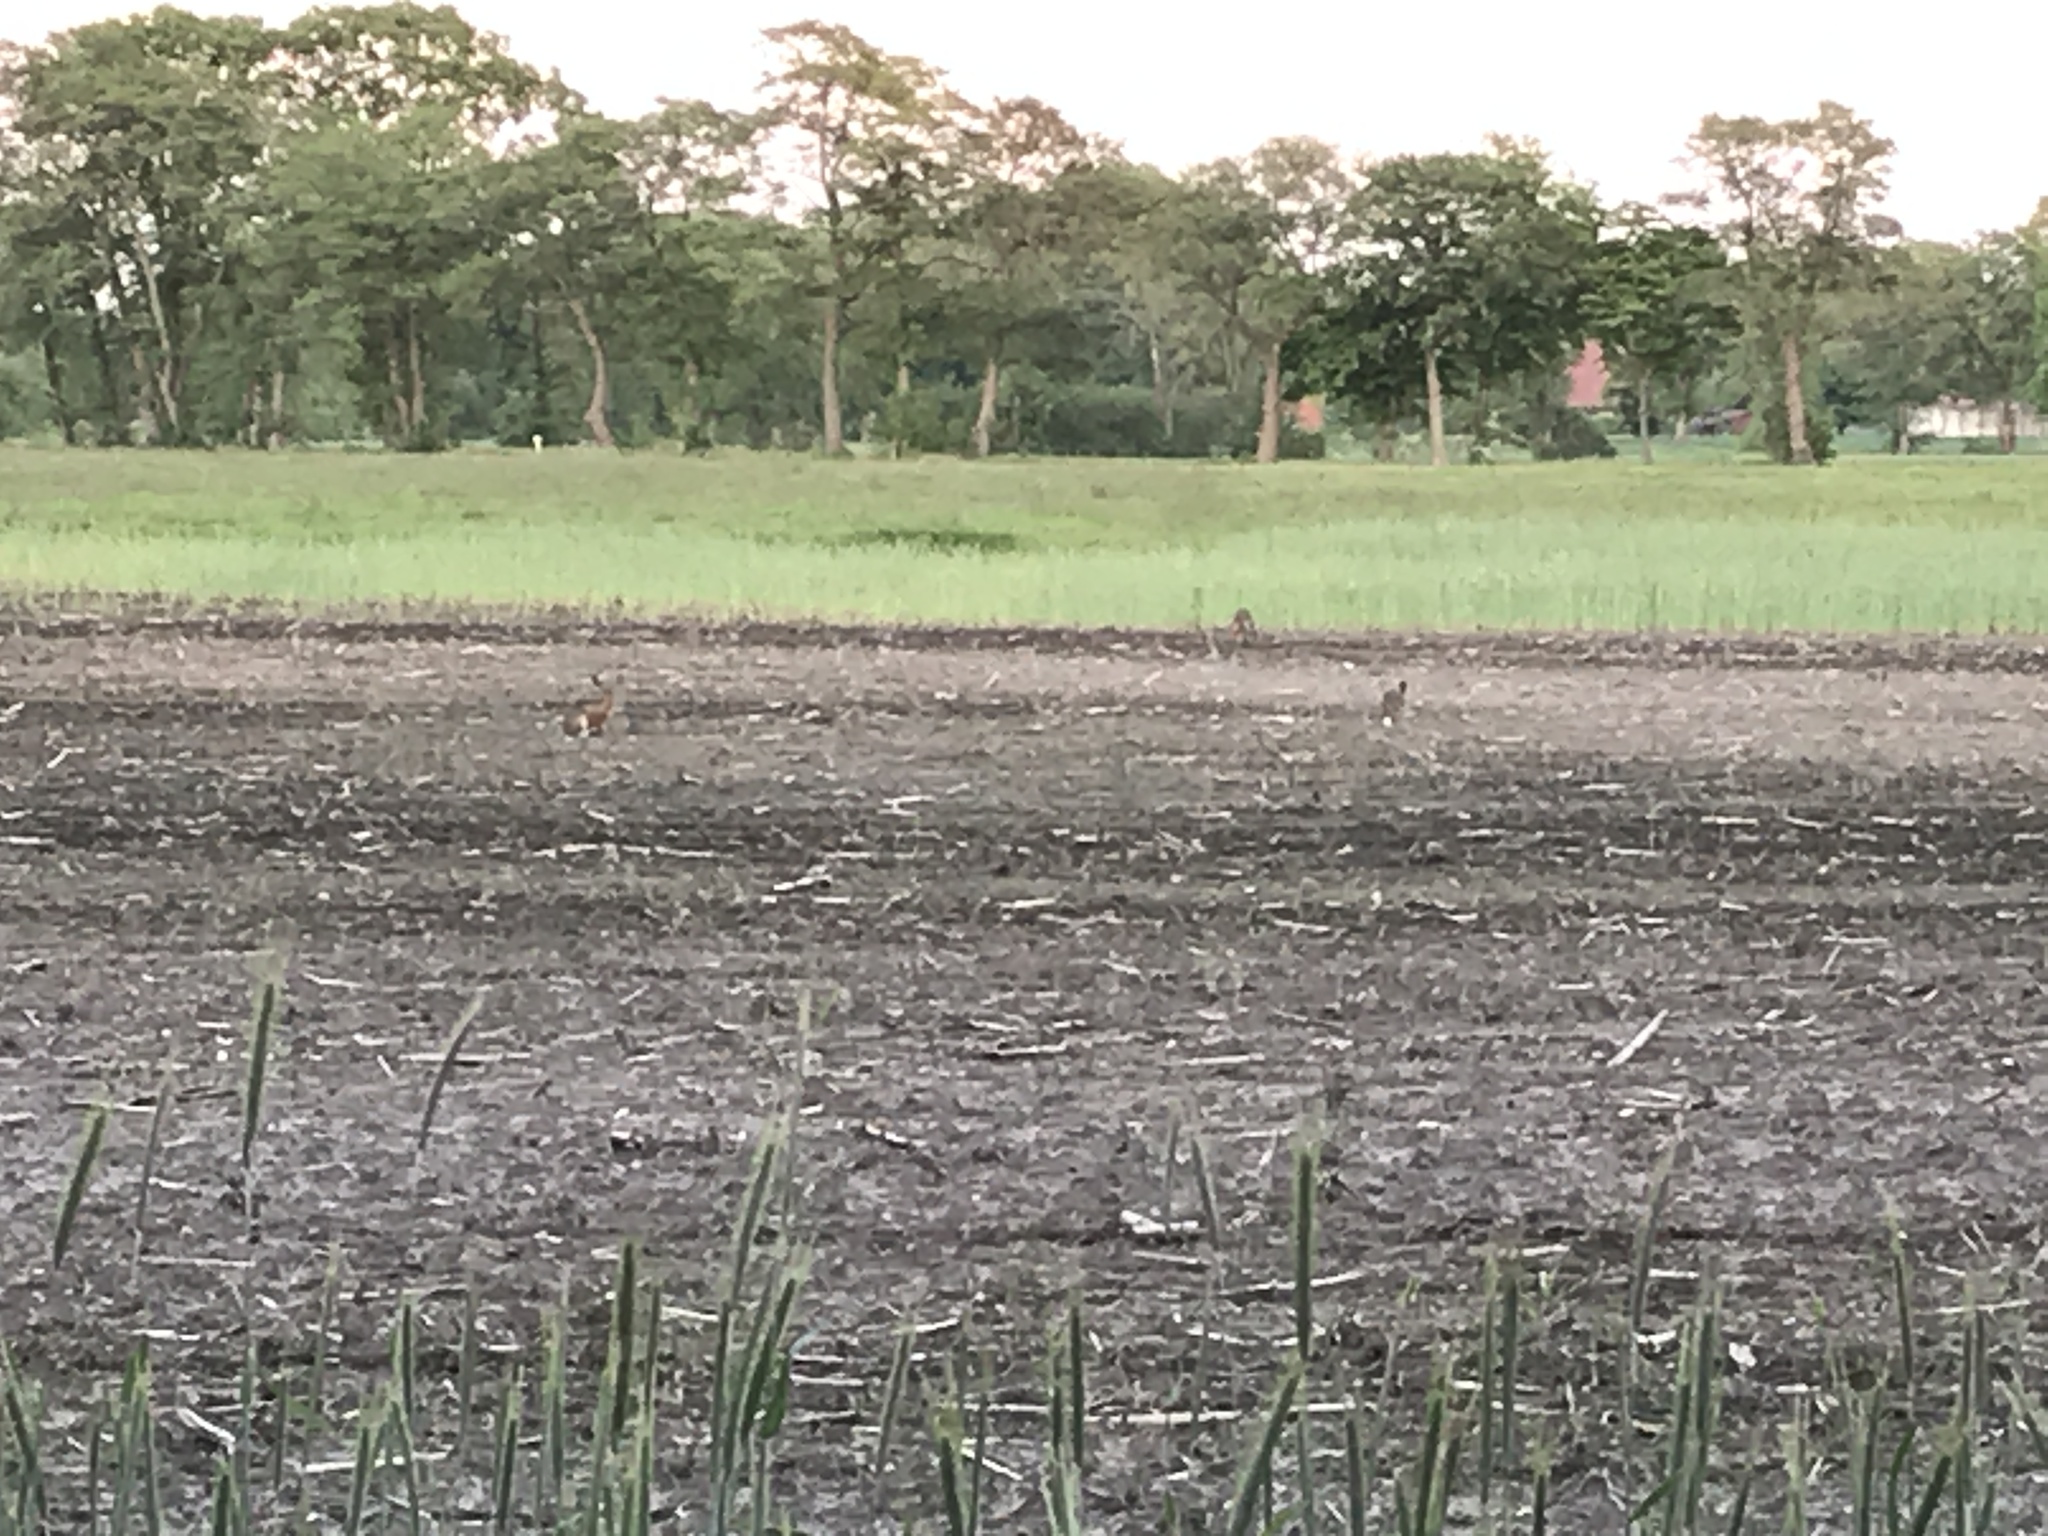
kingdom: Animalia
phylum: Chordata
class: Mammalia
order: Lagomorpha
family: Leporidae
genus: Lepus
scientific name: Lepus europaeus
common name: European hare
